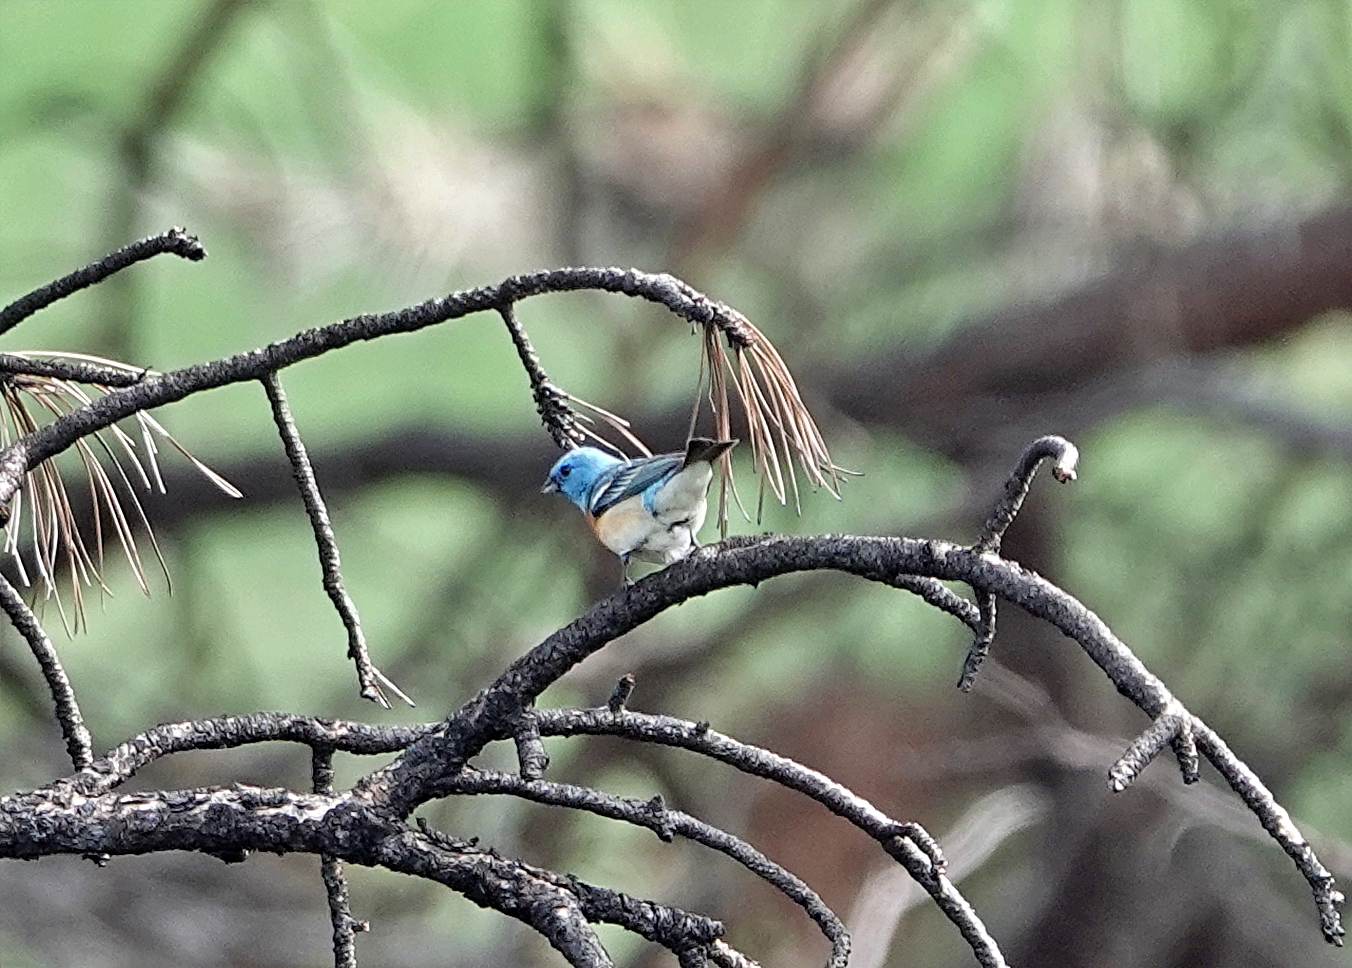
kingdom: Animalia
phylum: Chordata
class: Aves
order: Passeriformes
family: Cardinalidae
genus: Passerina
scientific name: Passerina amoena
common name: Lazuli bunting
